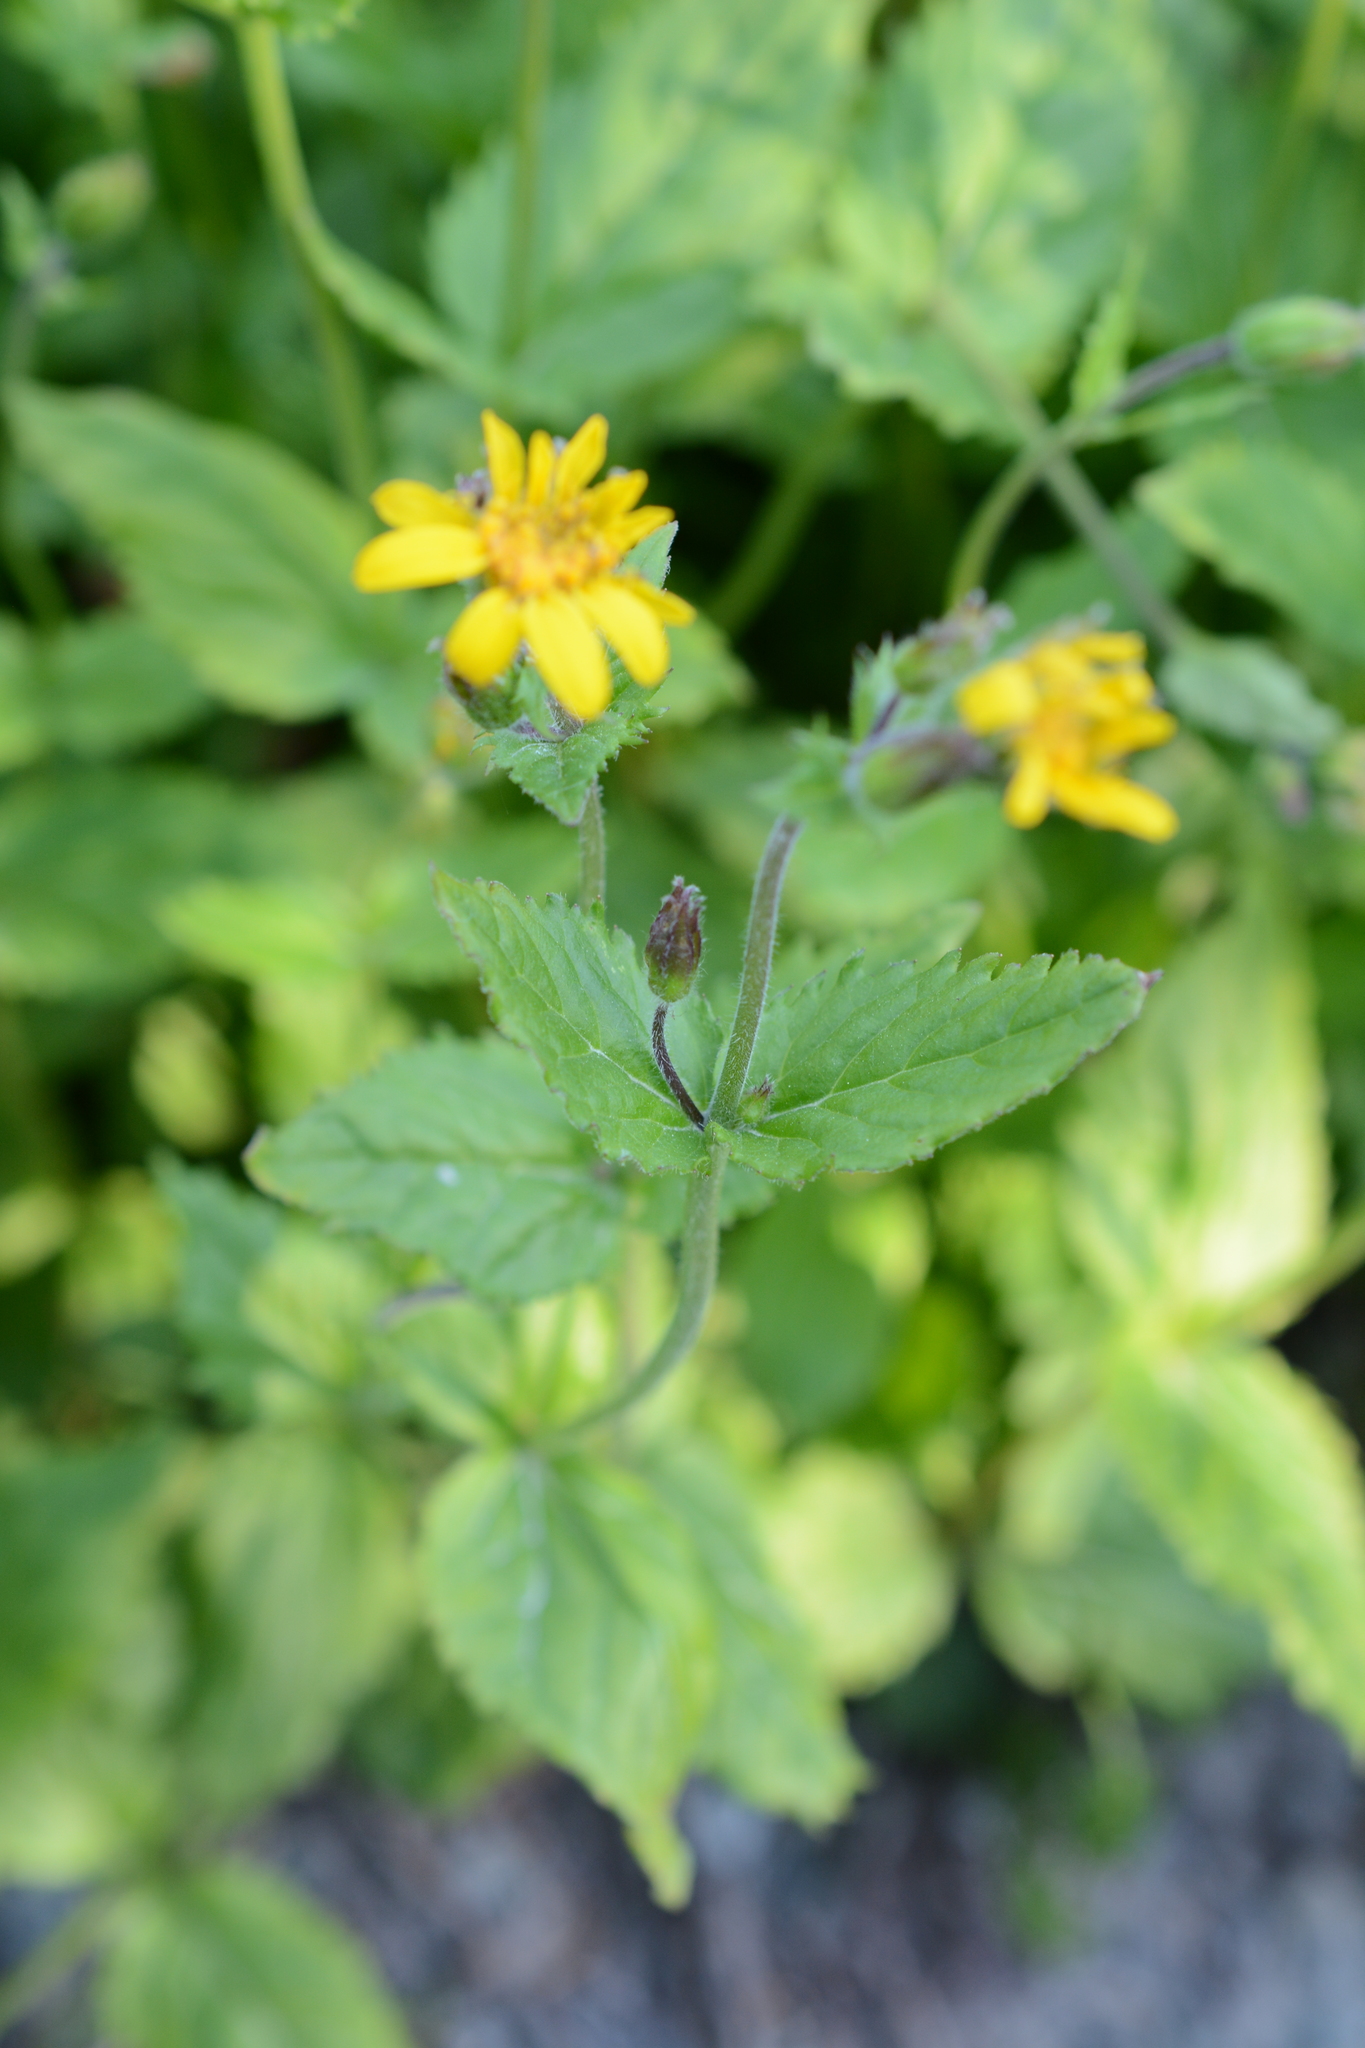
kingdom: Plantae
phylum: Tracheophyta
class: Magnoliopsida
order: Asterales
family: Asteraceae
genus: Arnica
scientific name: Arnica latifolia
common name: Arnica
